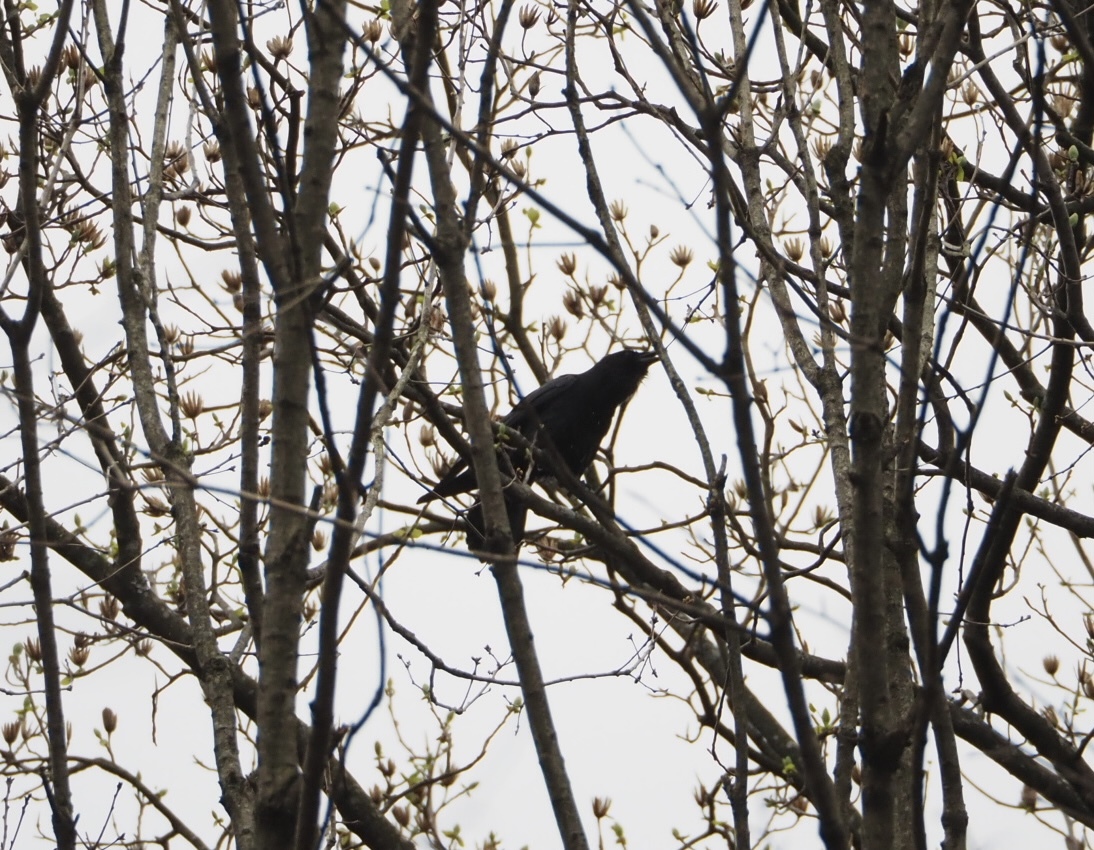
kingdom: Animalia
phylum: Chordata
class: Aves
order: Passeriformes
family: Corvidae
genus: Corvus
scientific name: Corvus ossifragus
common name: Fish crow
